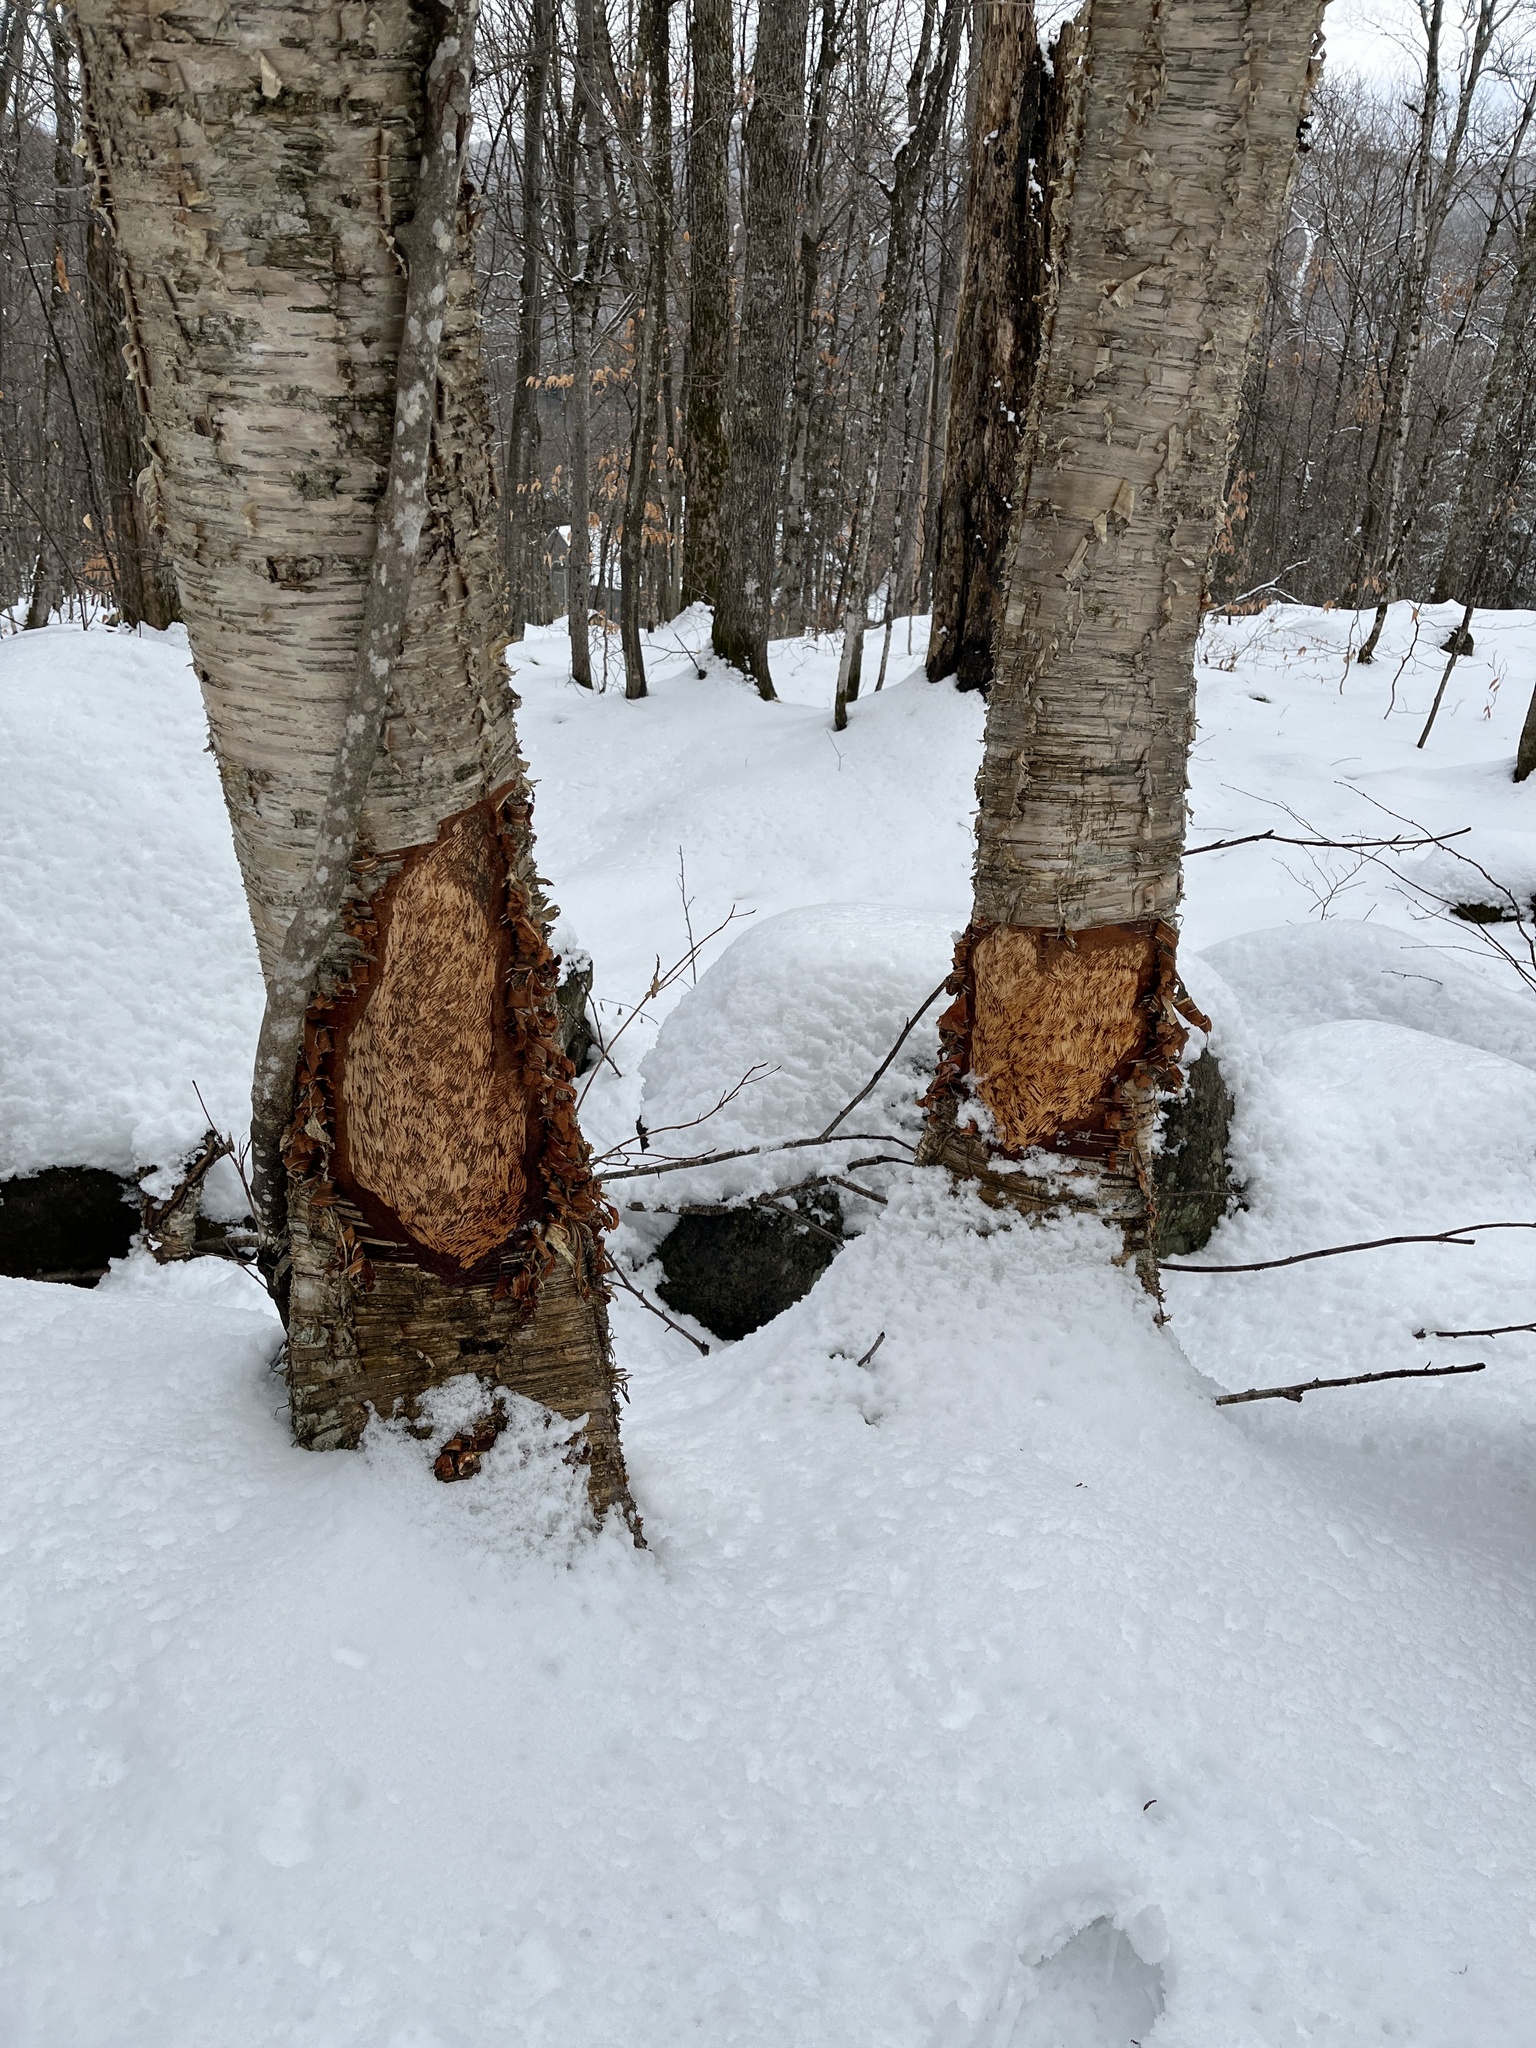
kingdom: Animalia
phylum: Chordata
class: Mammalia
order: Rodentia
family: Erethizontidae
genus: Erethizon
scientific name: Erethizon dorsatus
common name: North american porcupine
